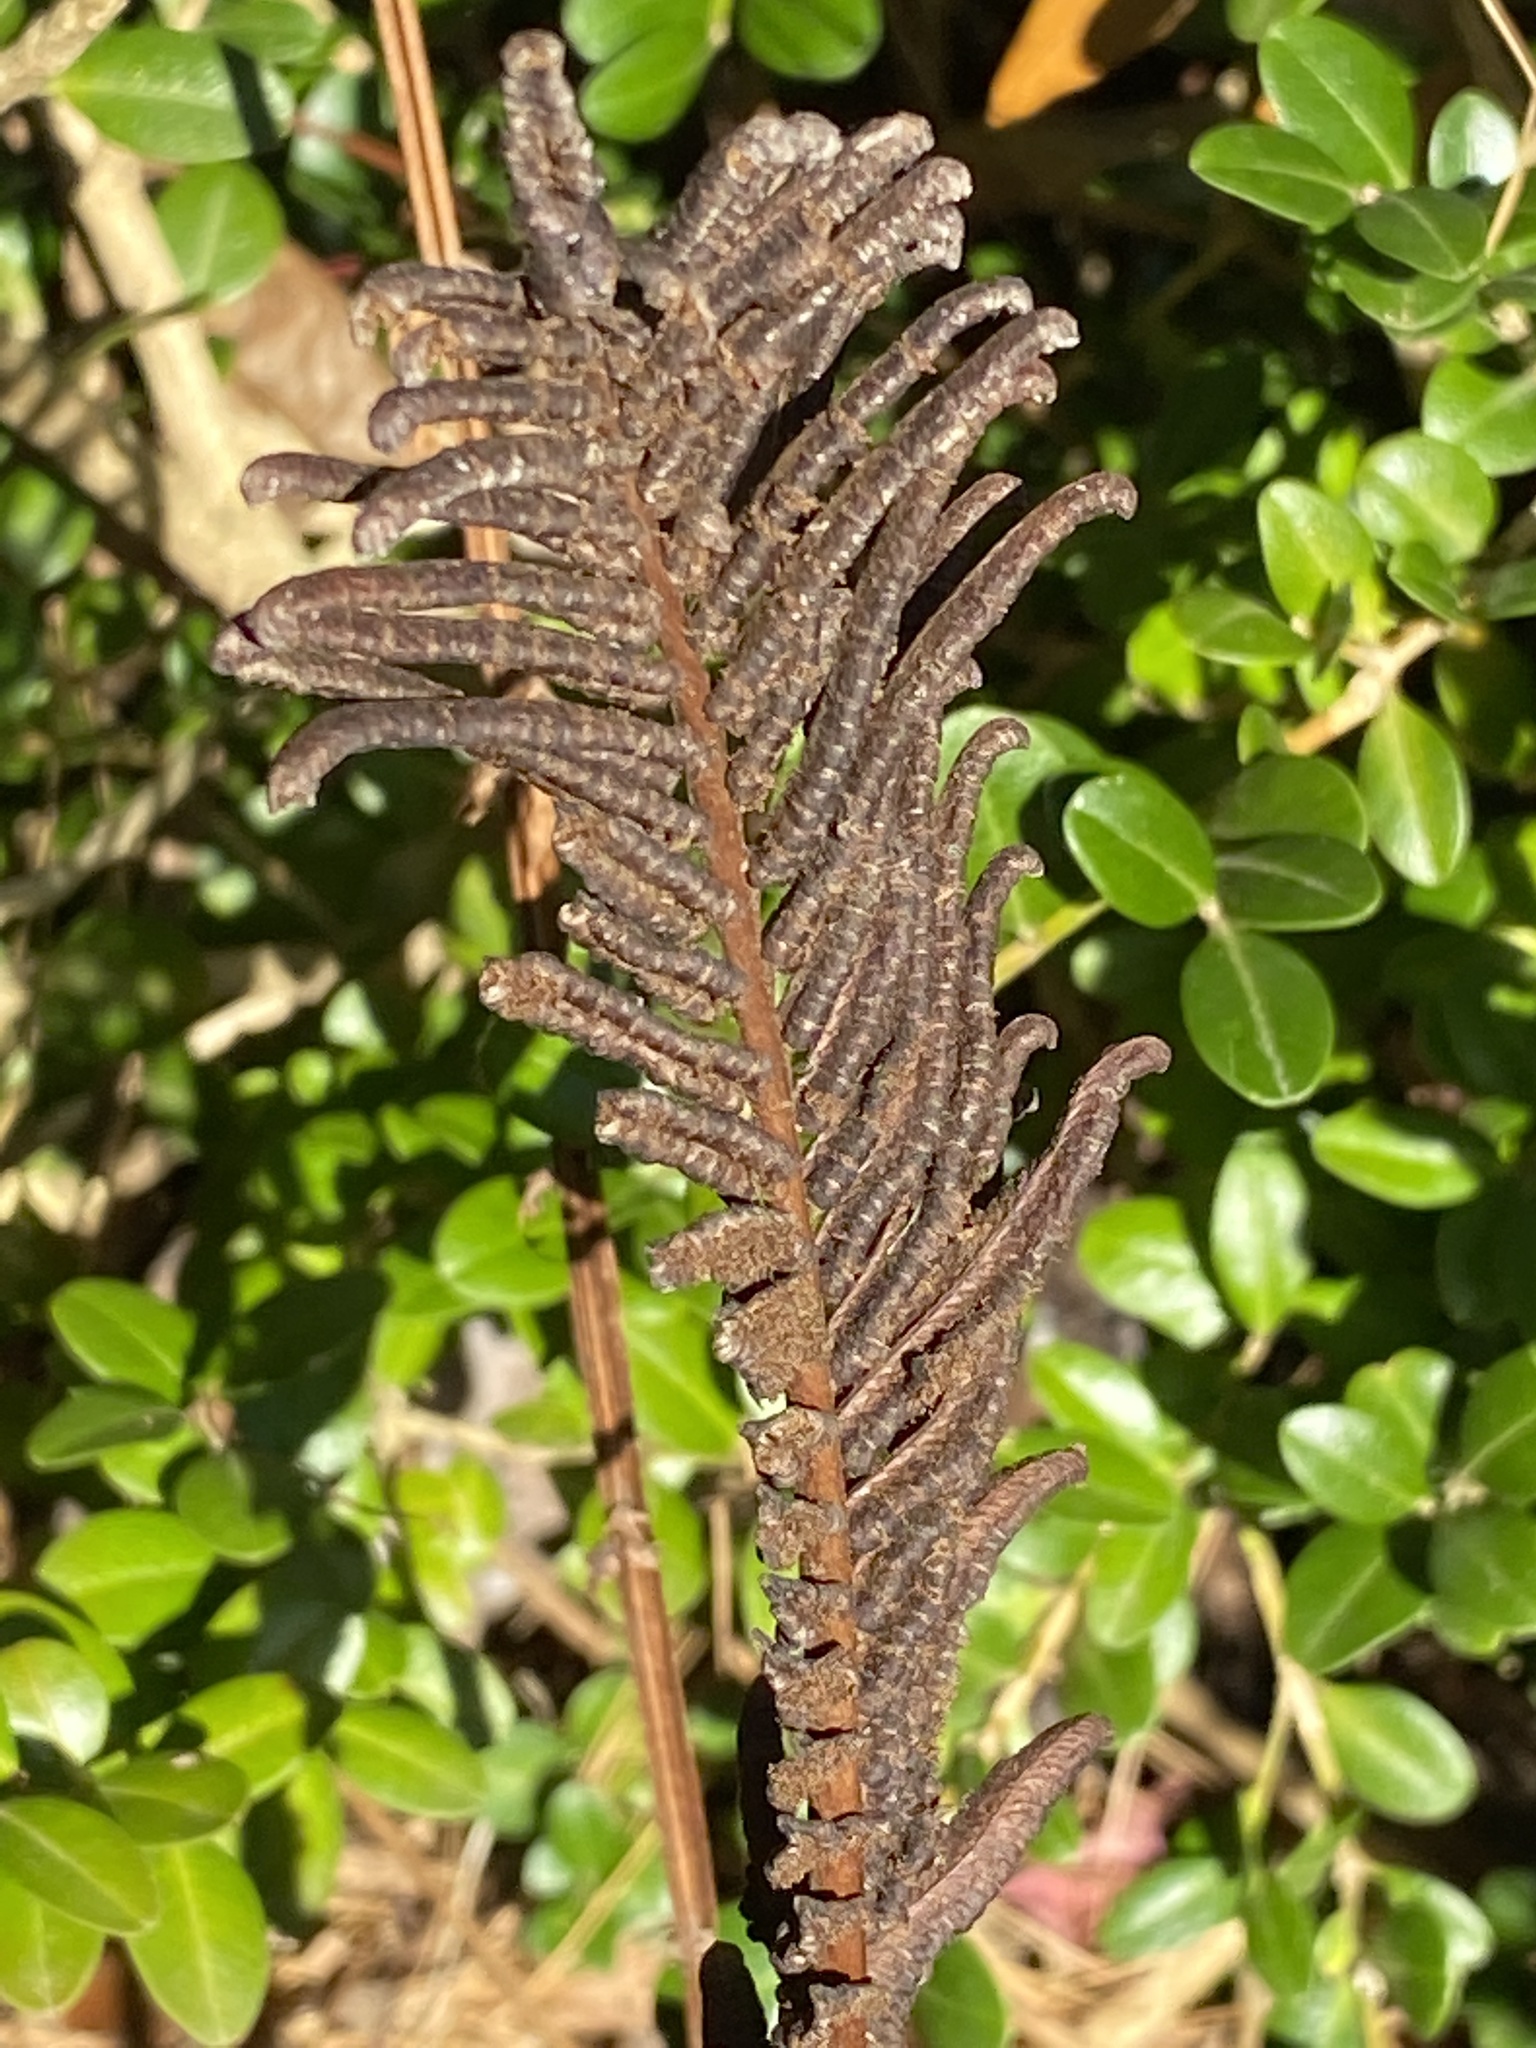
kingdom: Plantae
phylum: Tracheophyta
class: Polypodiopsida
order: Polypodiales
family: Onocleaceae
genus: Matteuccia
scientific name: Matteuccia struthiopteris
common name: Ostrich fern
